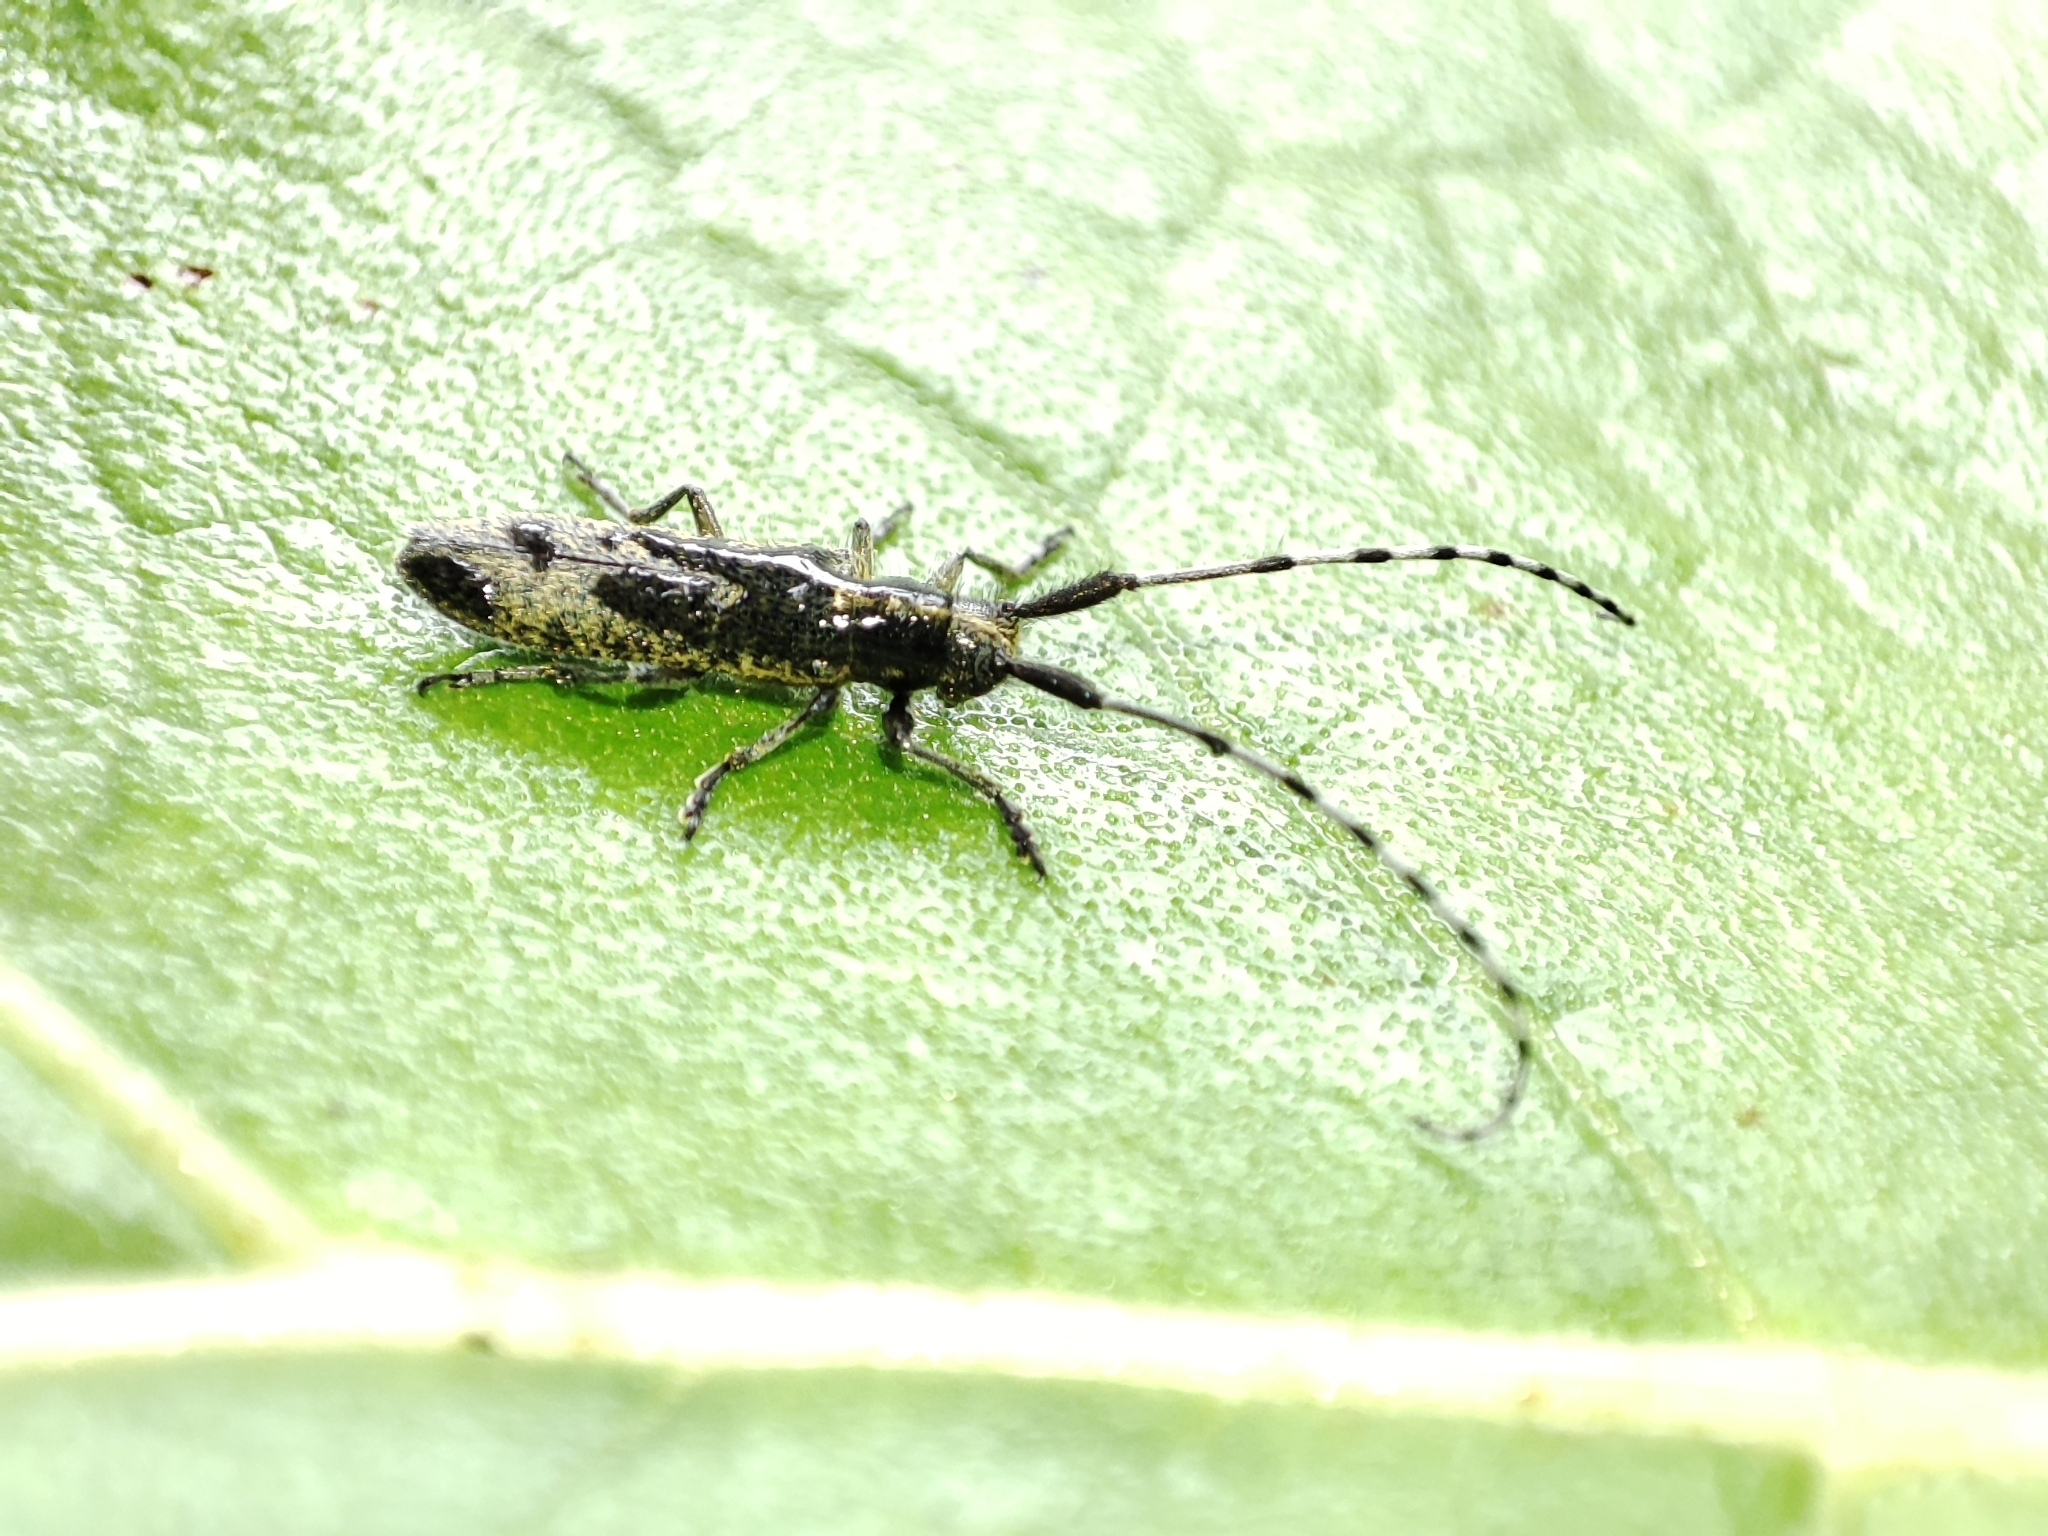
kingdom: Animalia
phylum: Arthropoda
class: Insecta
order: Coleoptera
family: Cerambycidae
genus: Agapanthia
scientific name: Agapanthia villosoviridescens
